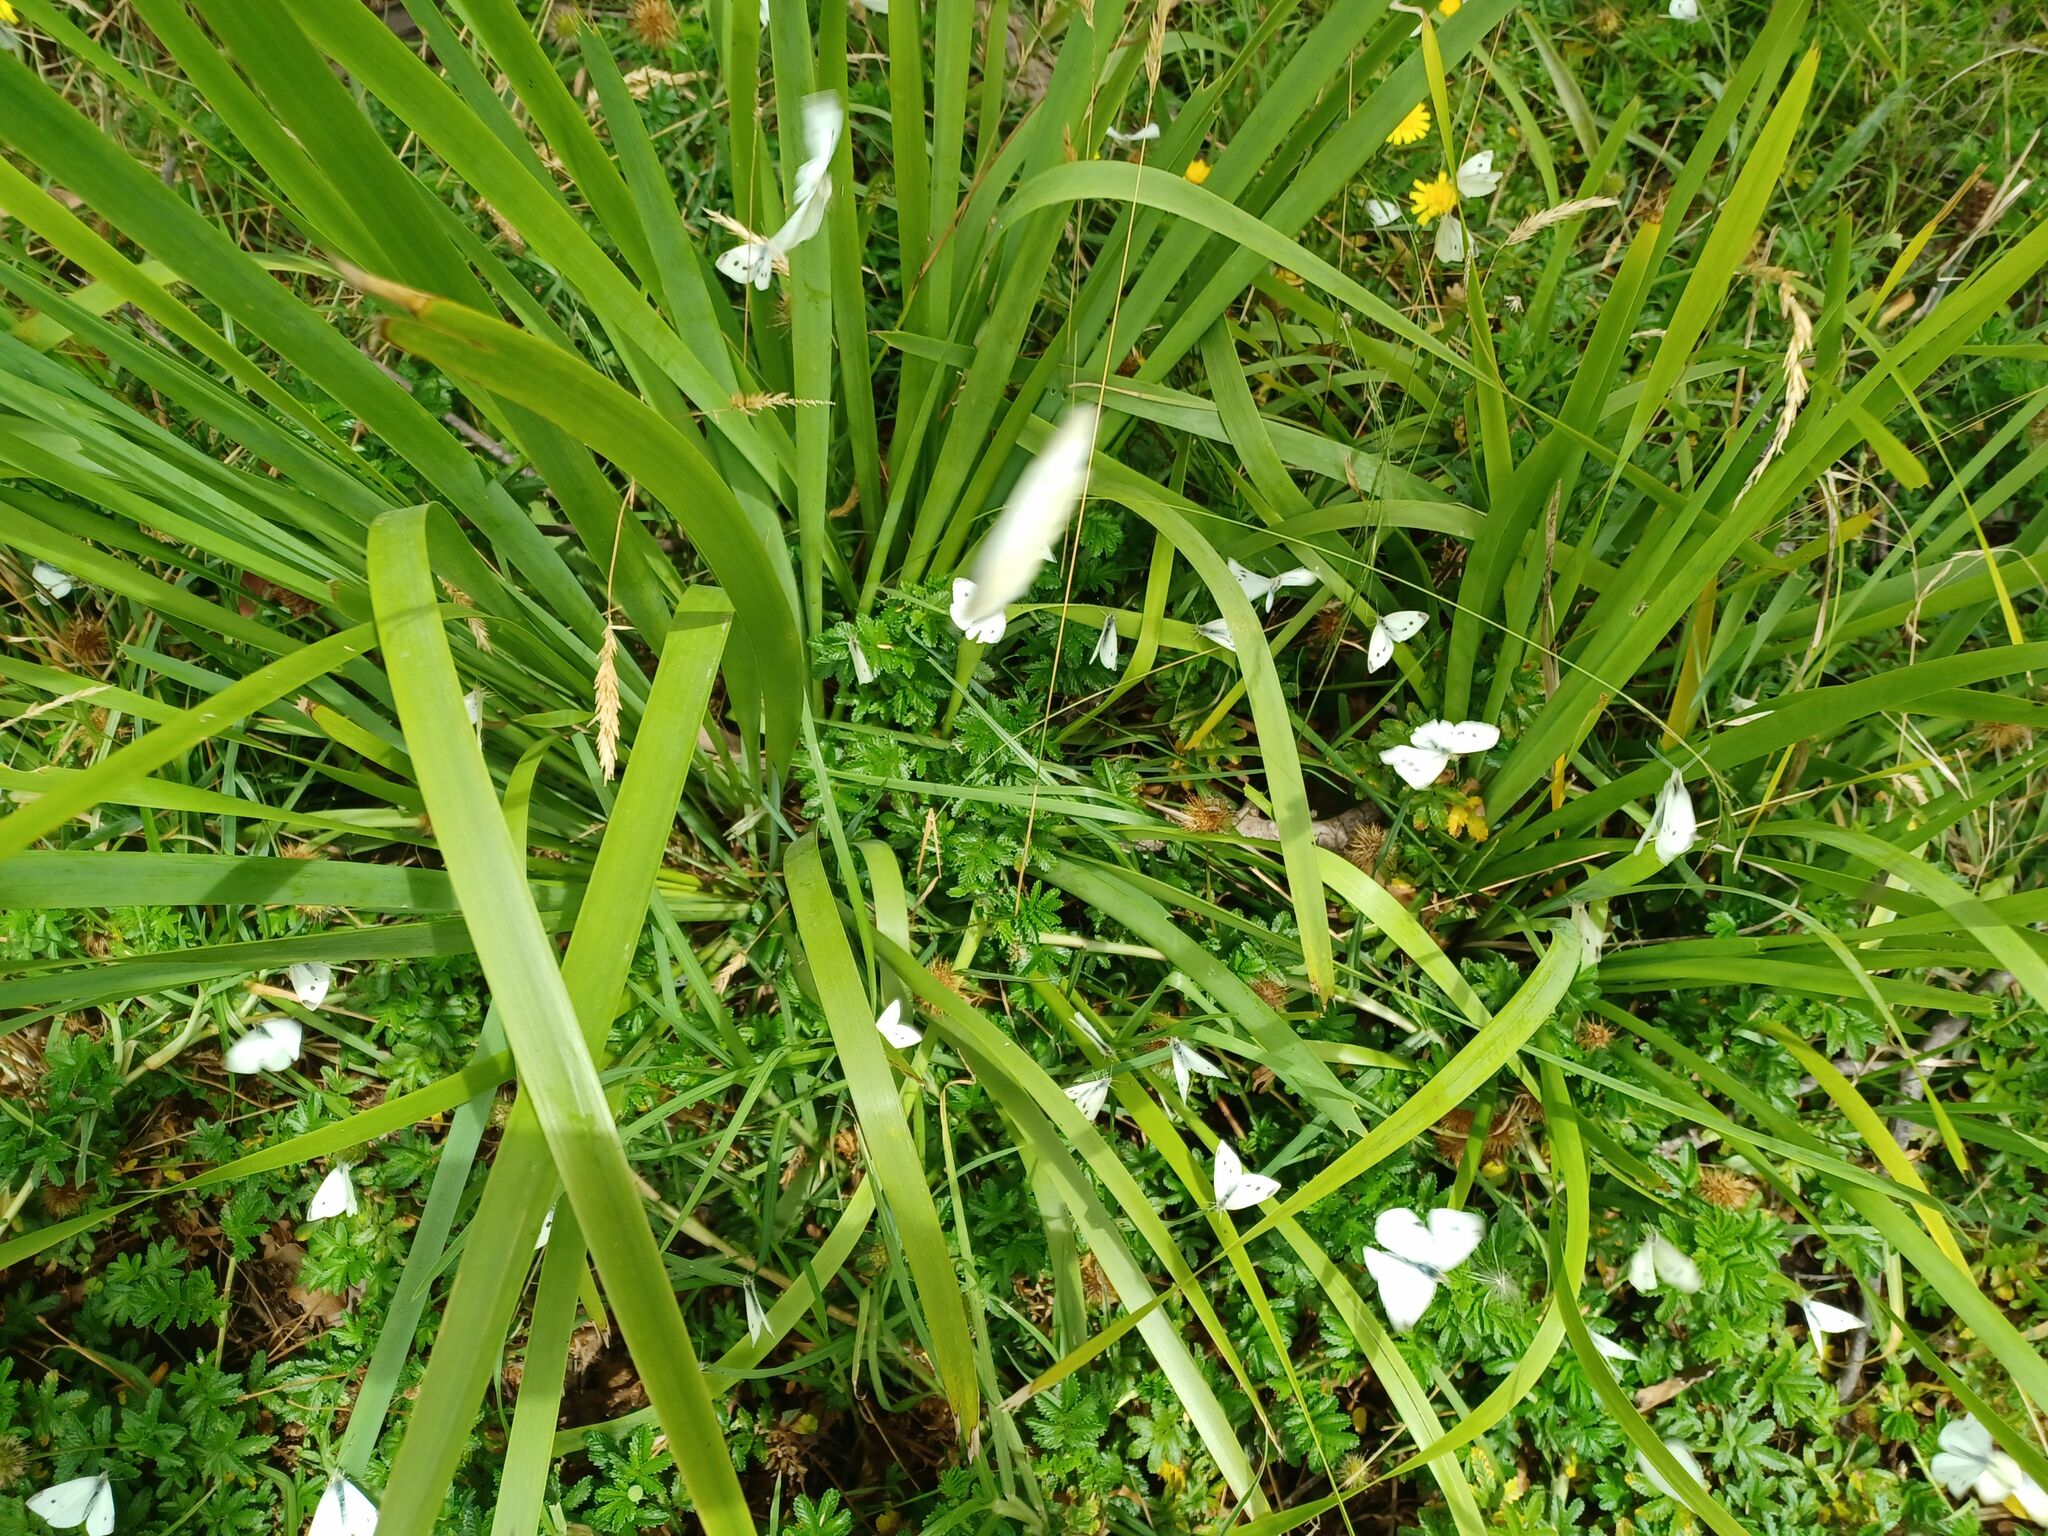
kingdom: Animalia
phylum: Arthropoda
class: Insecta
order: Lepidoptera
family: Pieridae
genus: Pieris
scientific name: Pieris rapae
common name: Small white
